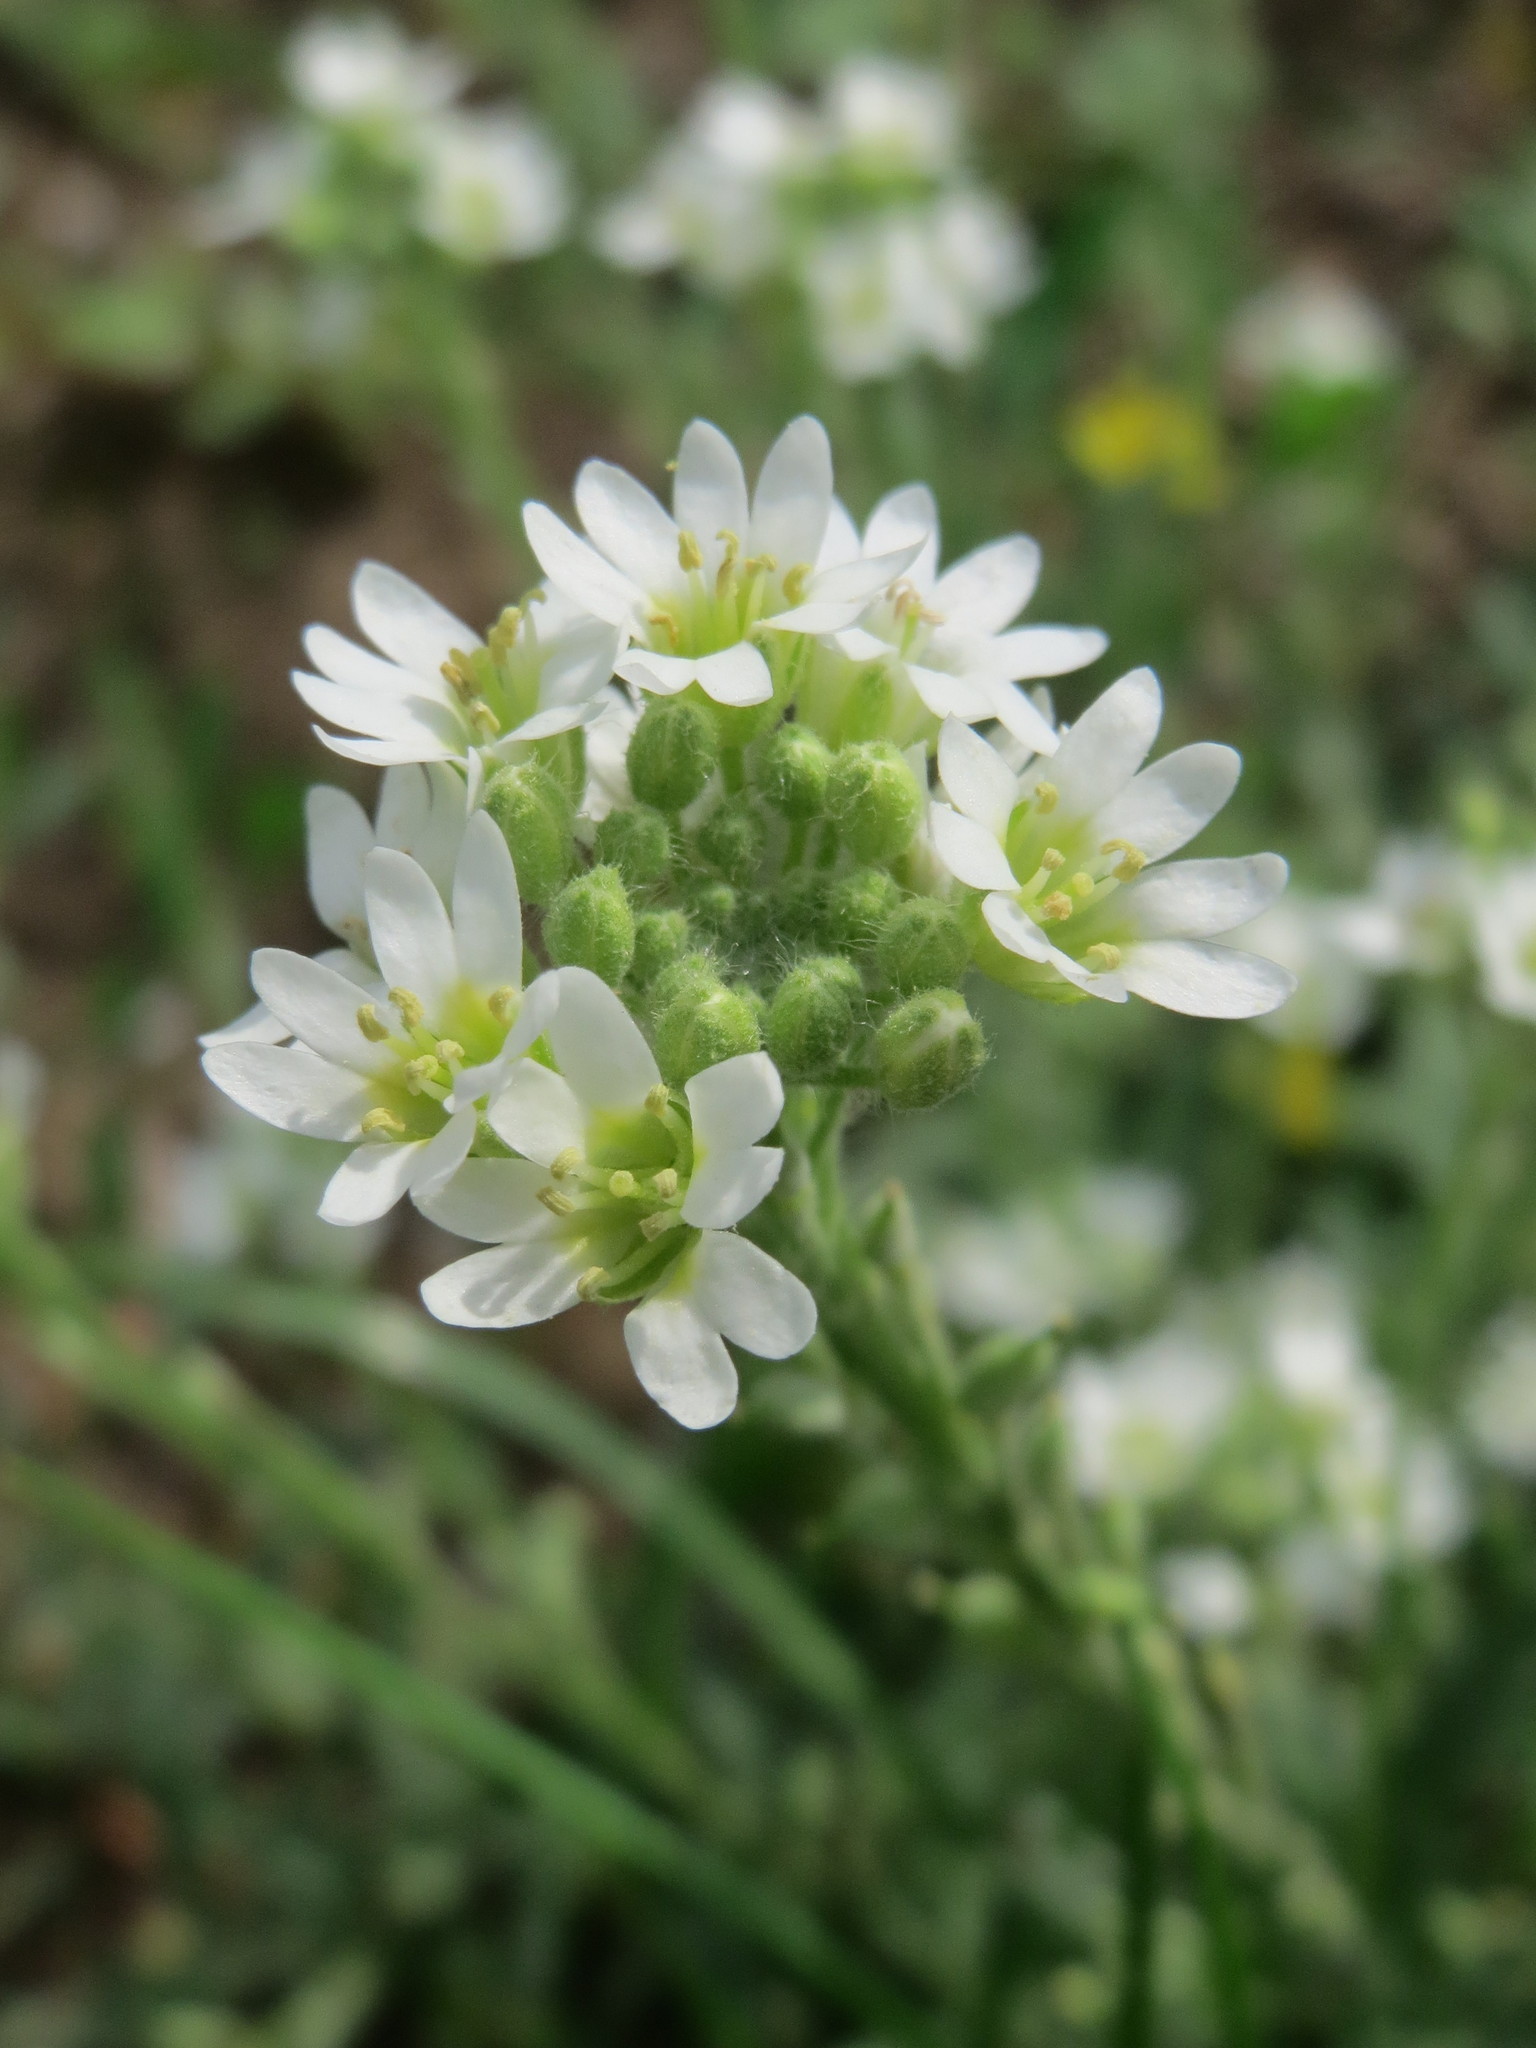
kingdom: Plantae
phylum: Tracheophyta
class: Magnoliopsida
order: Brassicales
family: Brassicaceae
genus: Berteroa
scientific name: Berteroa incana
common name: Hoary alison
